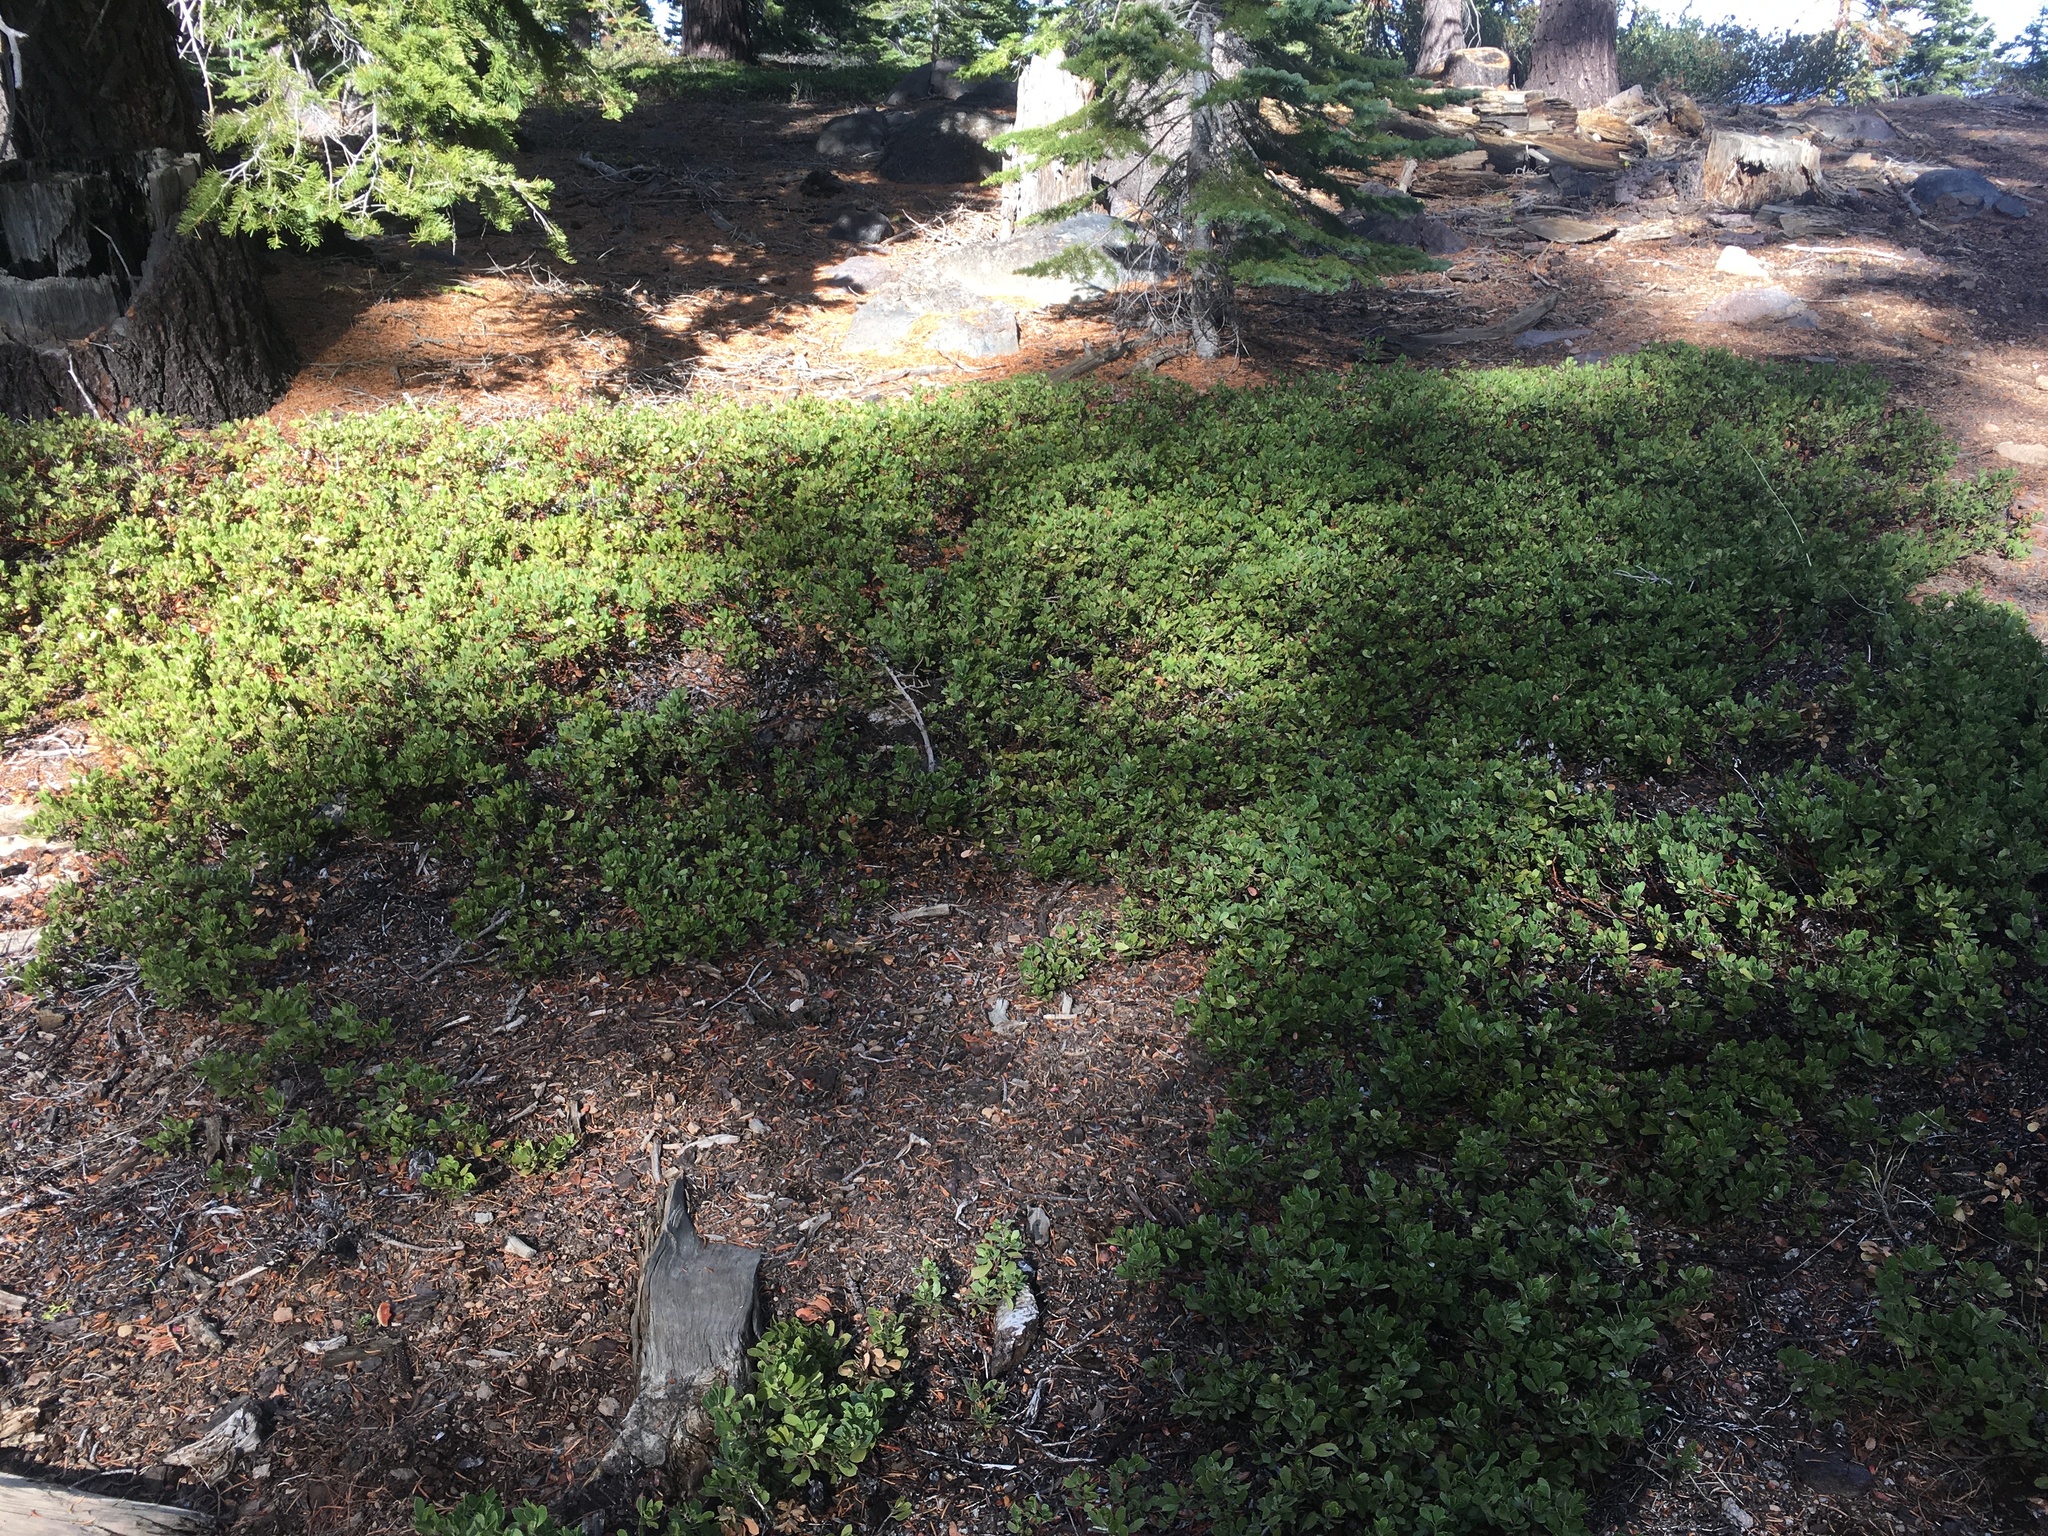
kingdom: Plantae
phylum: Tracheophyta
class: Magnoliopsida
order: Ericales
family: Ericaceae
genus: Arctostaphylos
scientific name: Arctostaphylos nevadensis
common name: Pinemat manzanita
